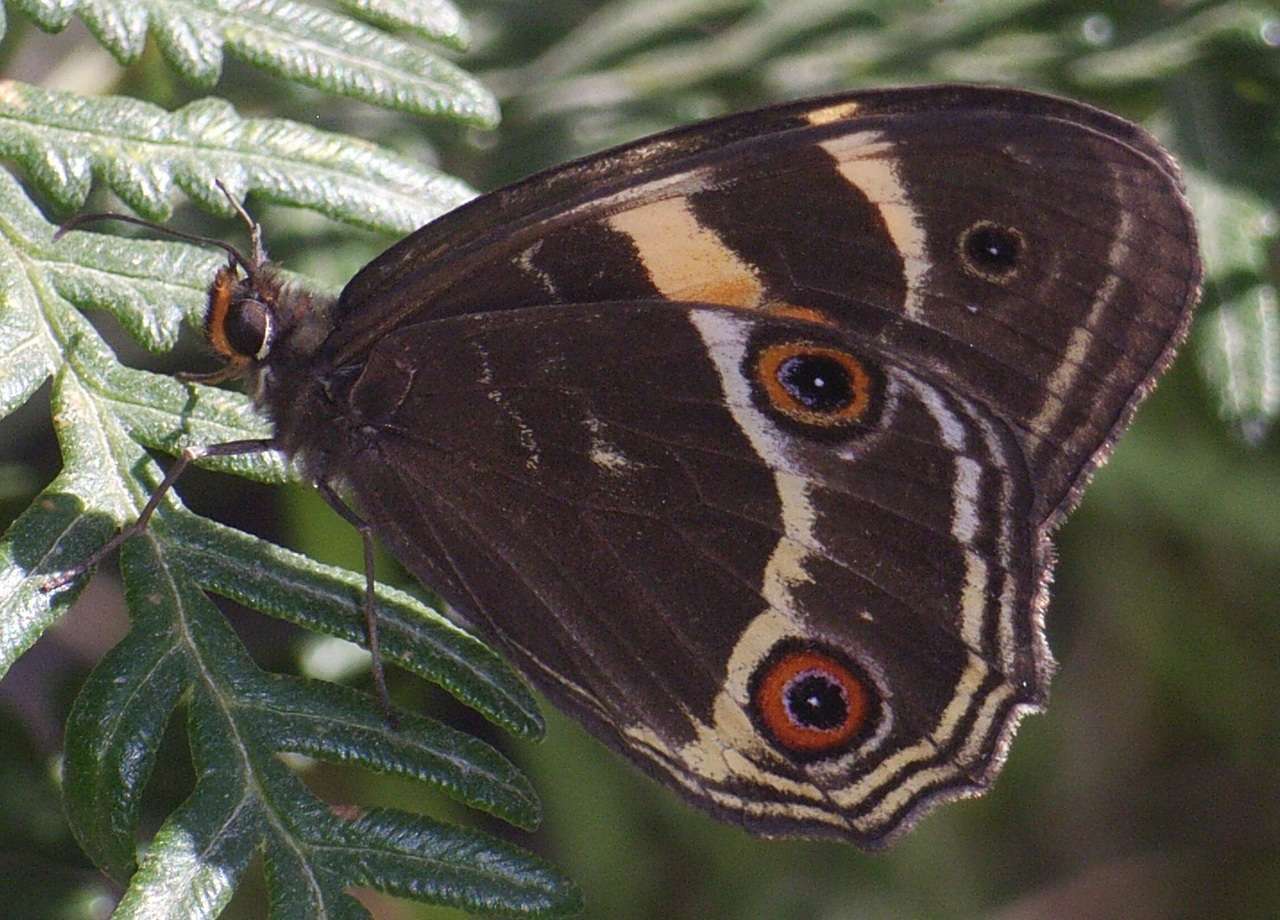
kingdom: Animalia
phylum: Arthropoda
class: Insecta
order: Lepidoptera
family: Nymphalidae
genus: Tisiphone
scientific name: Tisiphone abeona
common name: Swordgrass brown
